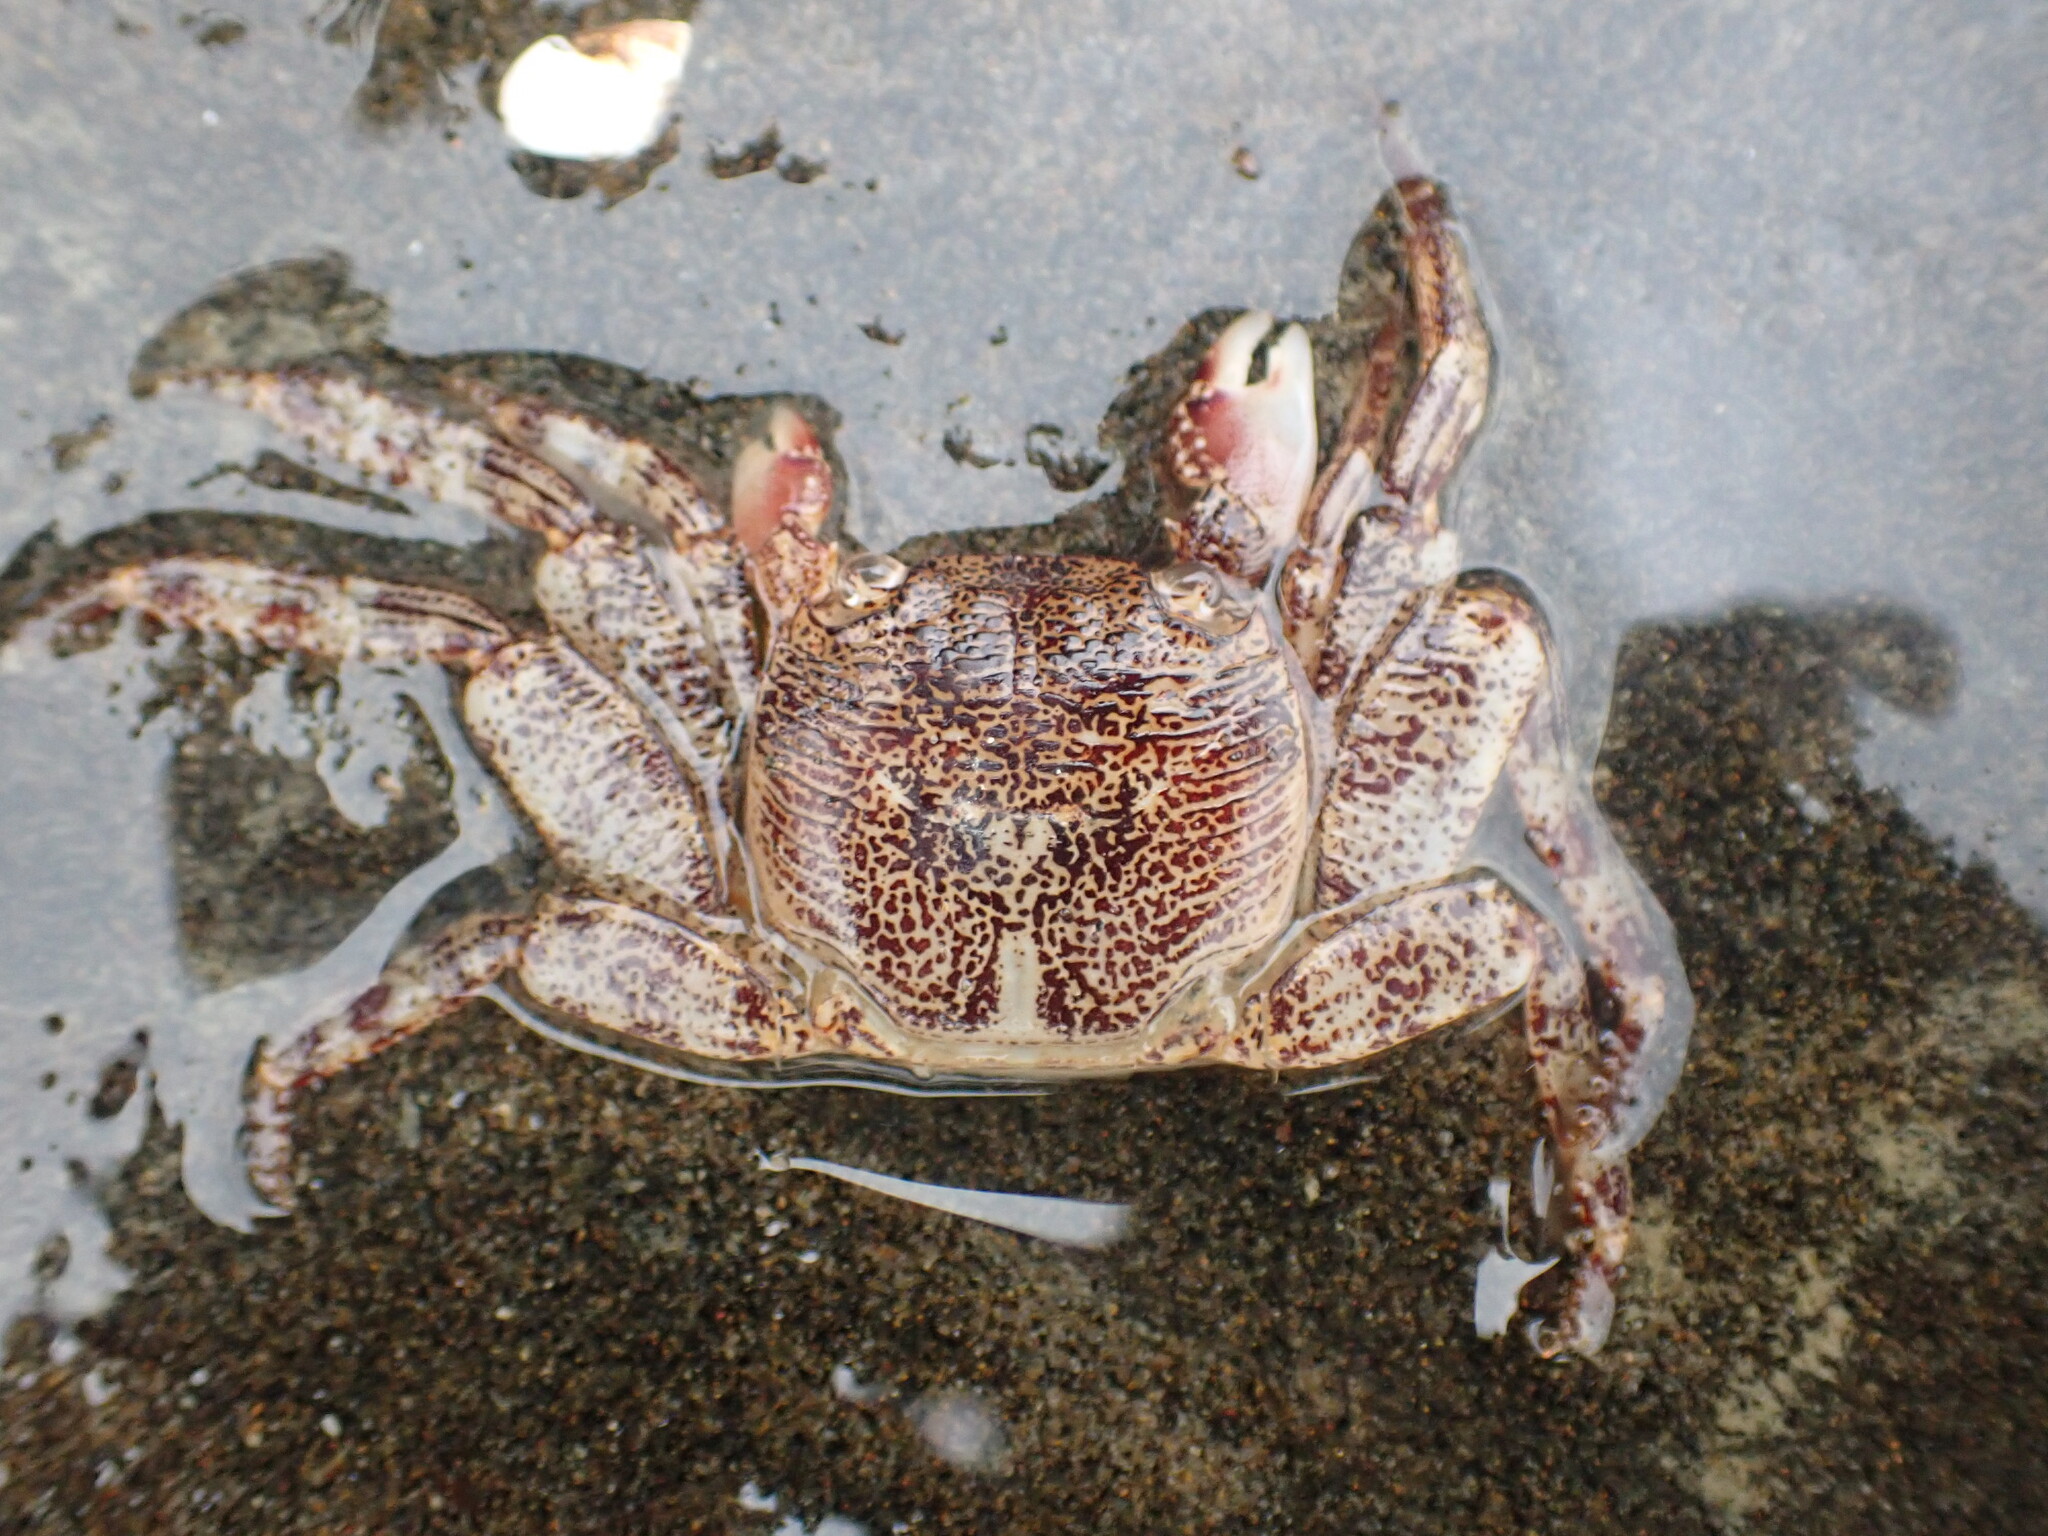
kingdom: Animalia
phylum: Arthropoda
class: Malacostraca
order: Decapoda
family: Grapsidae
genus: Leptograpsus
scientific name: Leptograpsus variegatus
